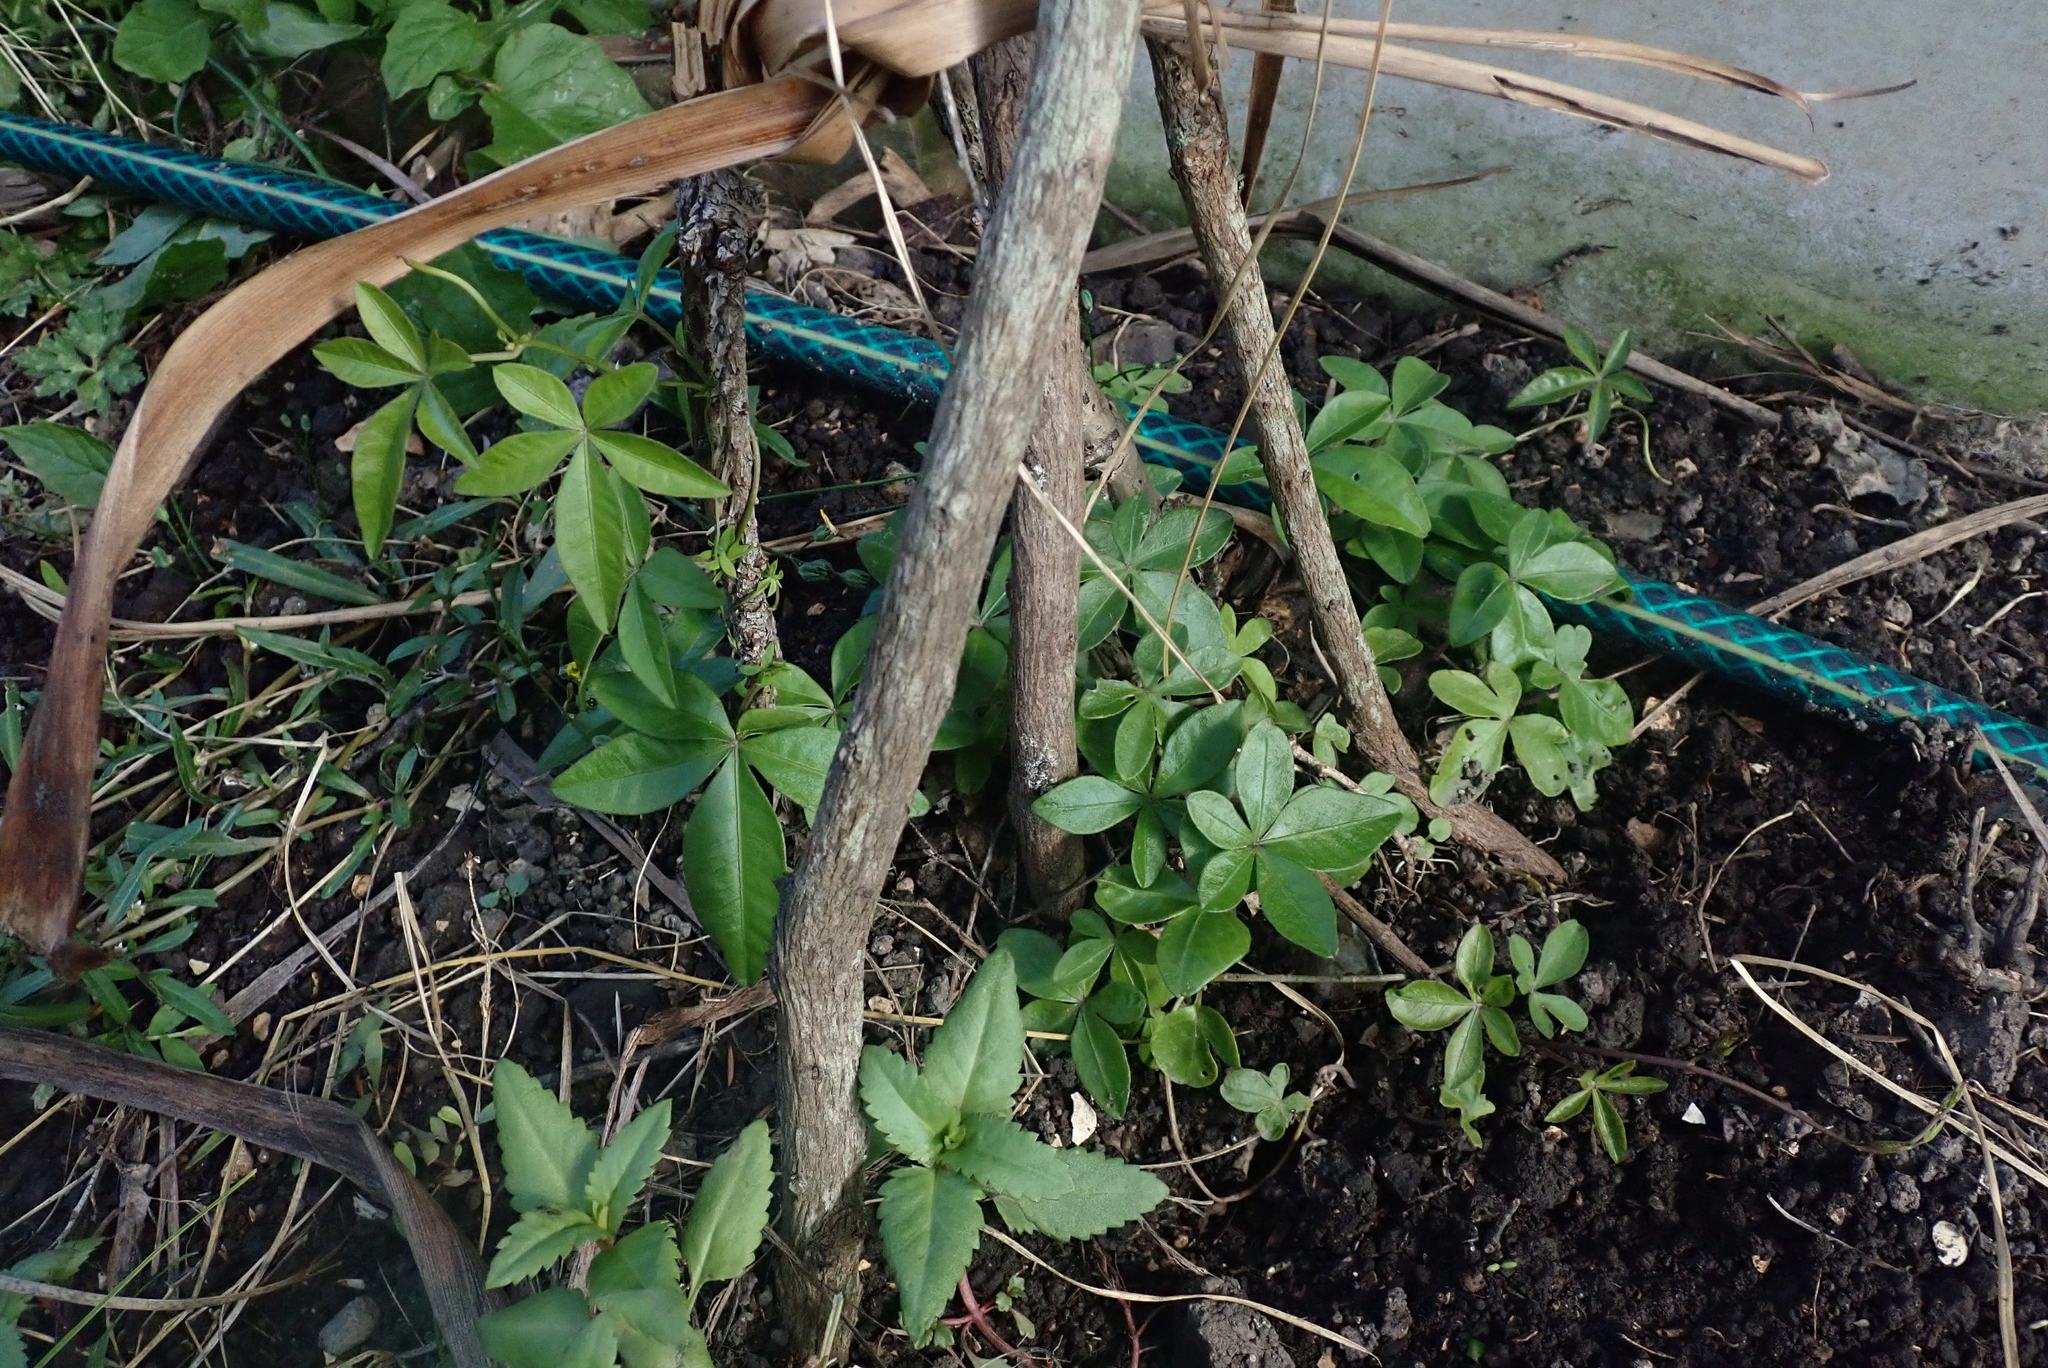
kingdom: Plantae
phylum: Tracheophyta
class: Magnoliopsida
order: Solanales
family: Convolvulaceae
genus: Ipomoea
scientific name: Ipomoea cairica
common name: Mile a minute vine
